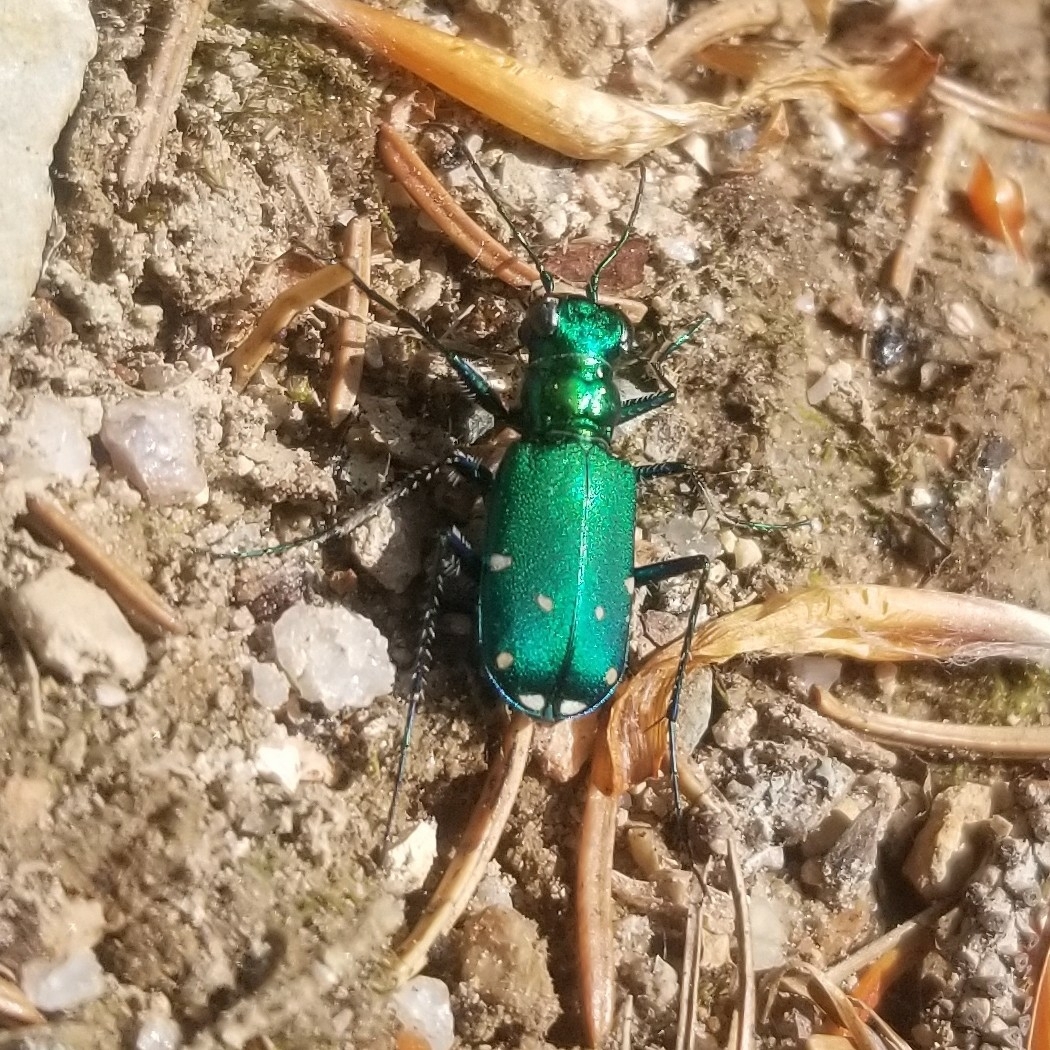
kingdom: Animalia
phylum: Arthropoda
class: Insecta
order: Coleoptera
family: Carabidae
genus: Cicindela
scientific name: Cicindela sexguttata
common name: Six-spotted tiger beetle
